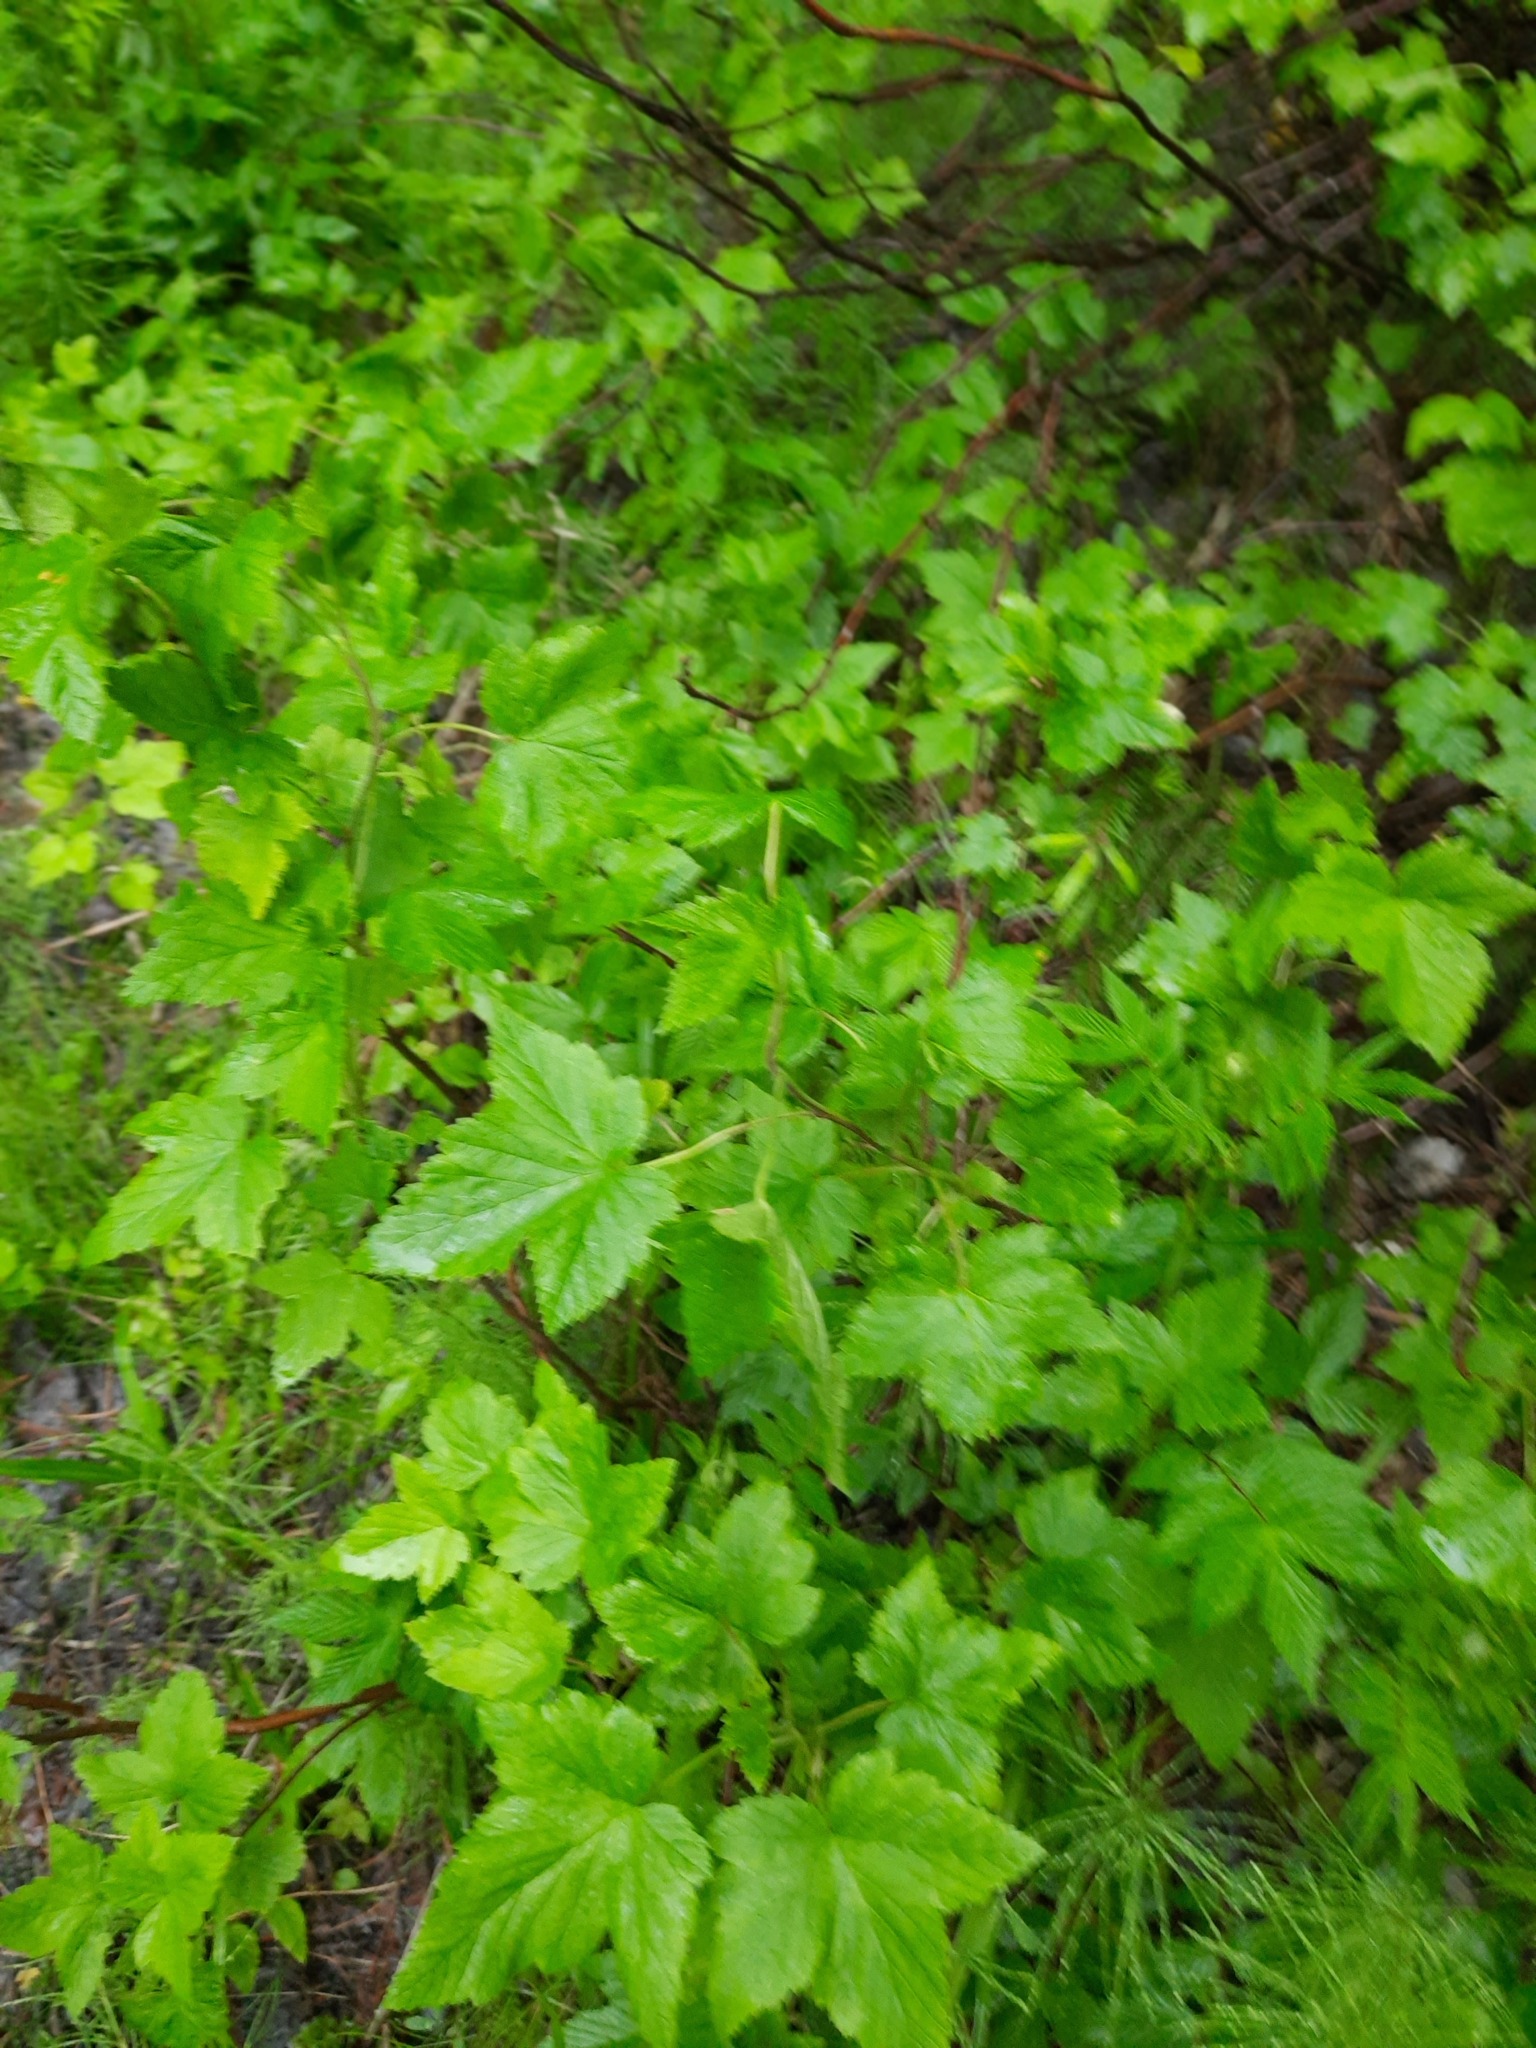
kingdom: Plantae
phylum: Tracheophyta
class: Magnoliopsida
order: Saxifragales
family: Grossulariaceae
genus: Ribes
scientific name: Ribes nigrum
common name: Black currant
